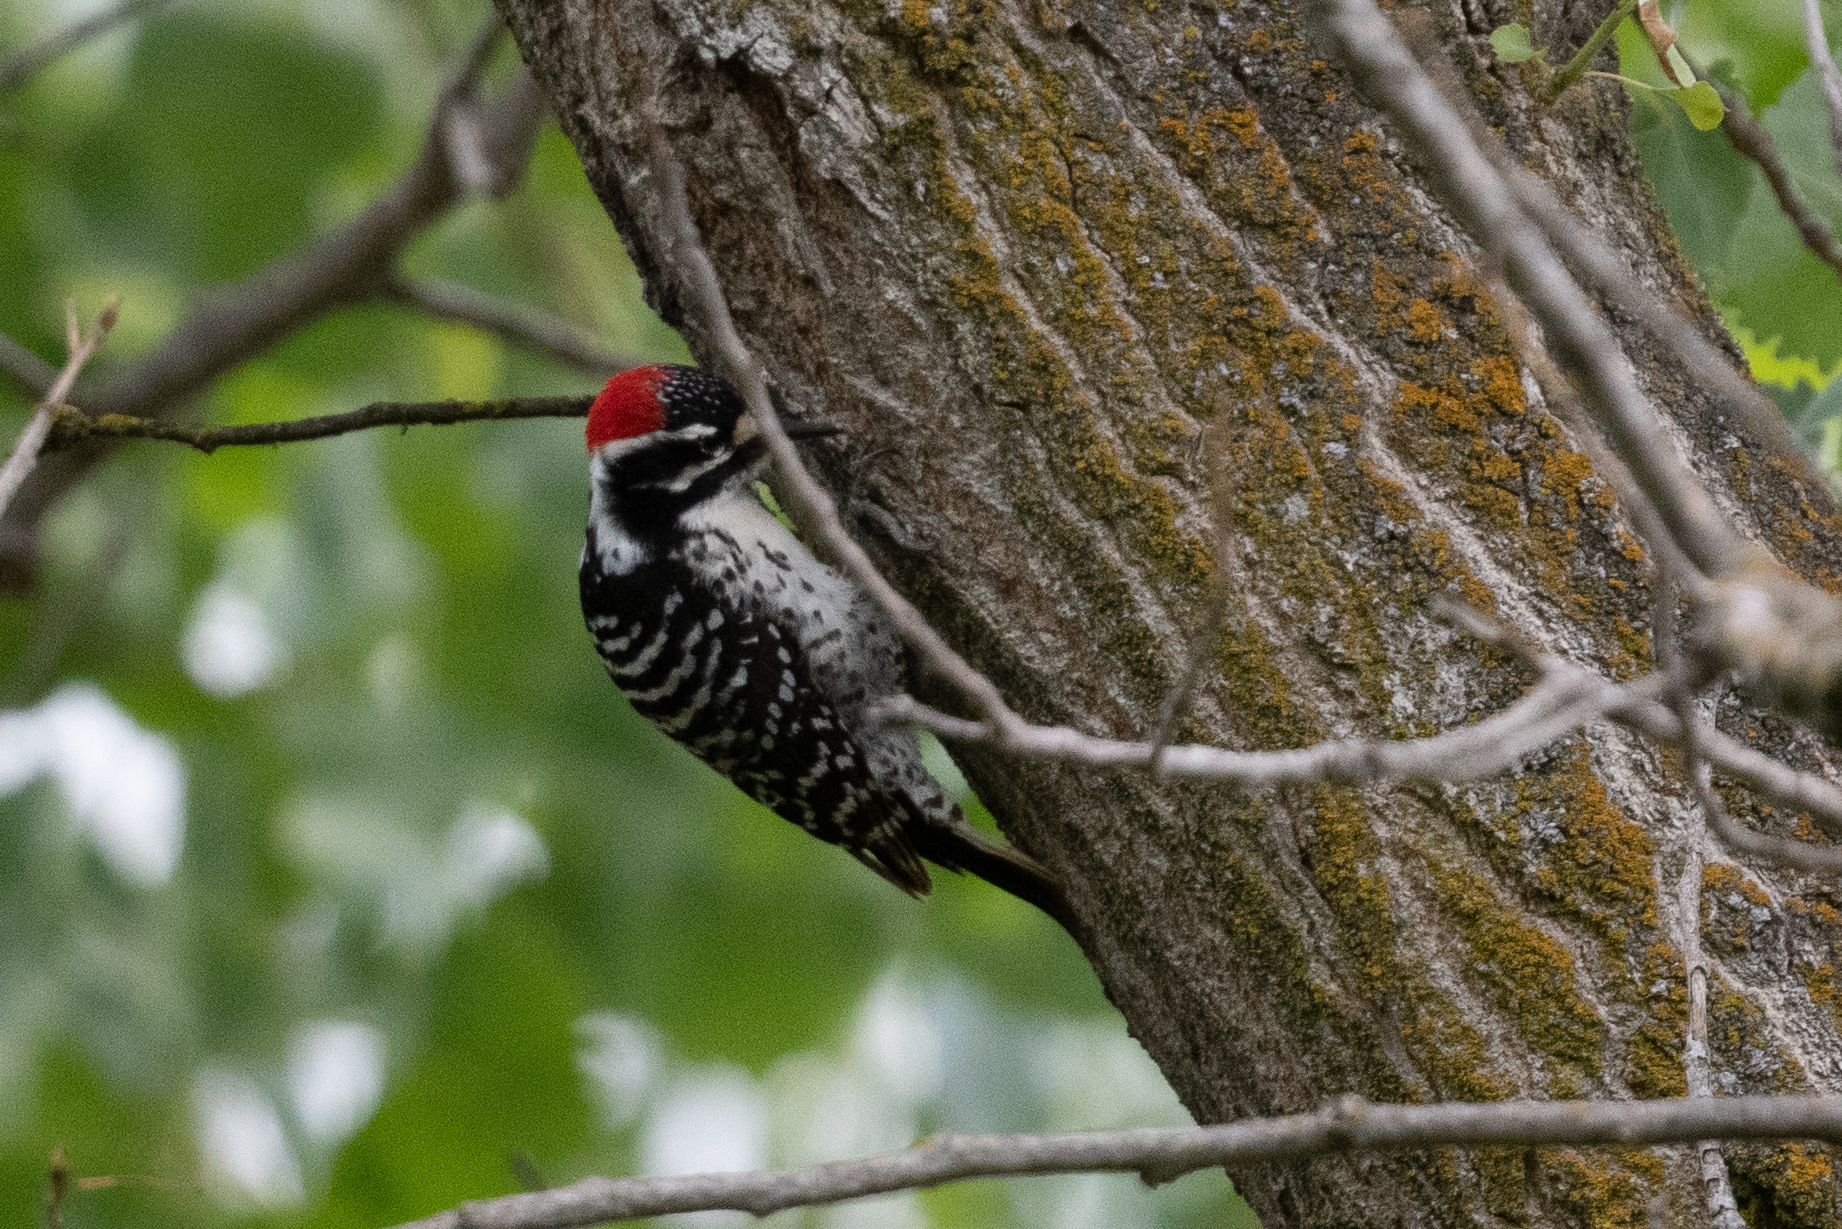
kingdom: Animalia
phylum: Chordata
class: Aves
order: Piciformes
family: Picidae
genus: Dryobates
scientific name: Dryobates nuttallii
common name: Nuttall's woodpecker
